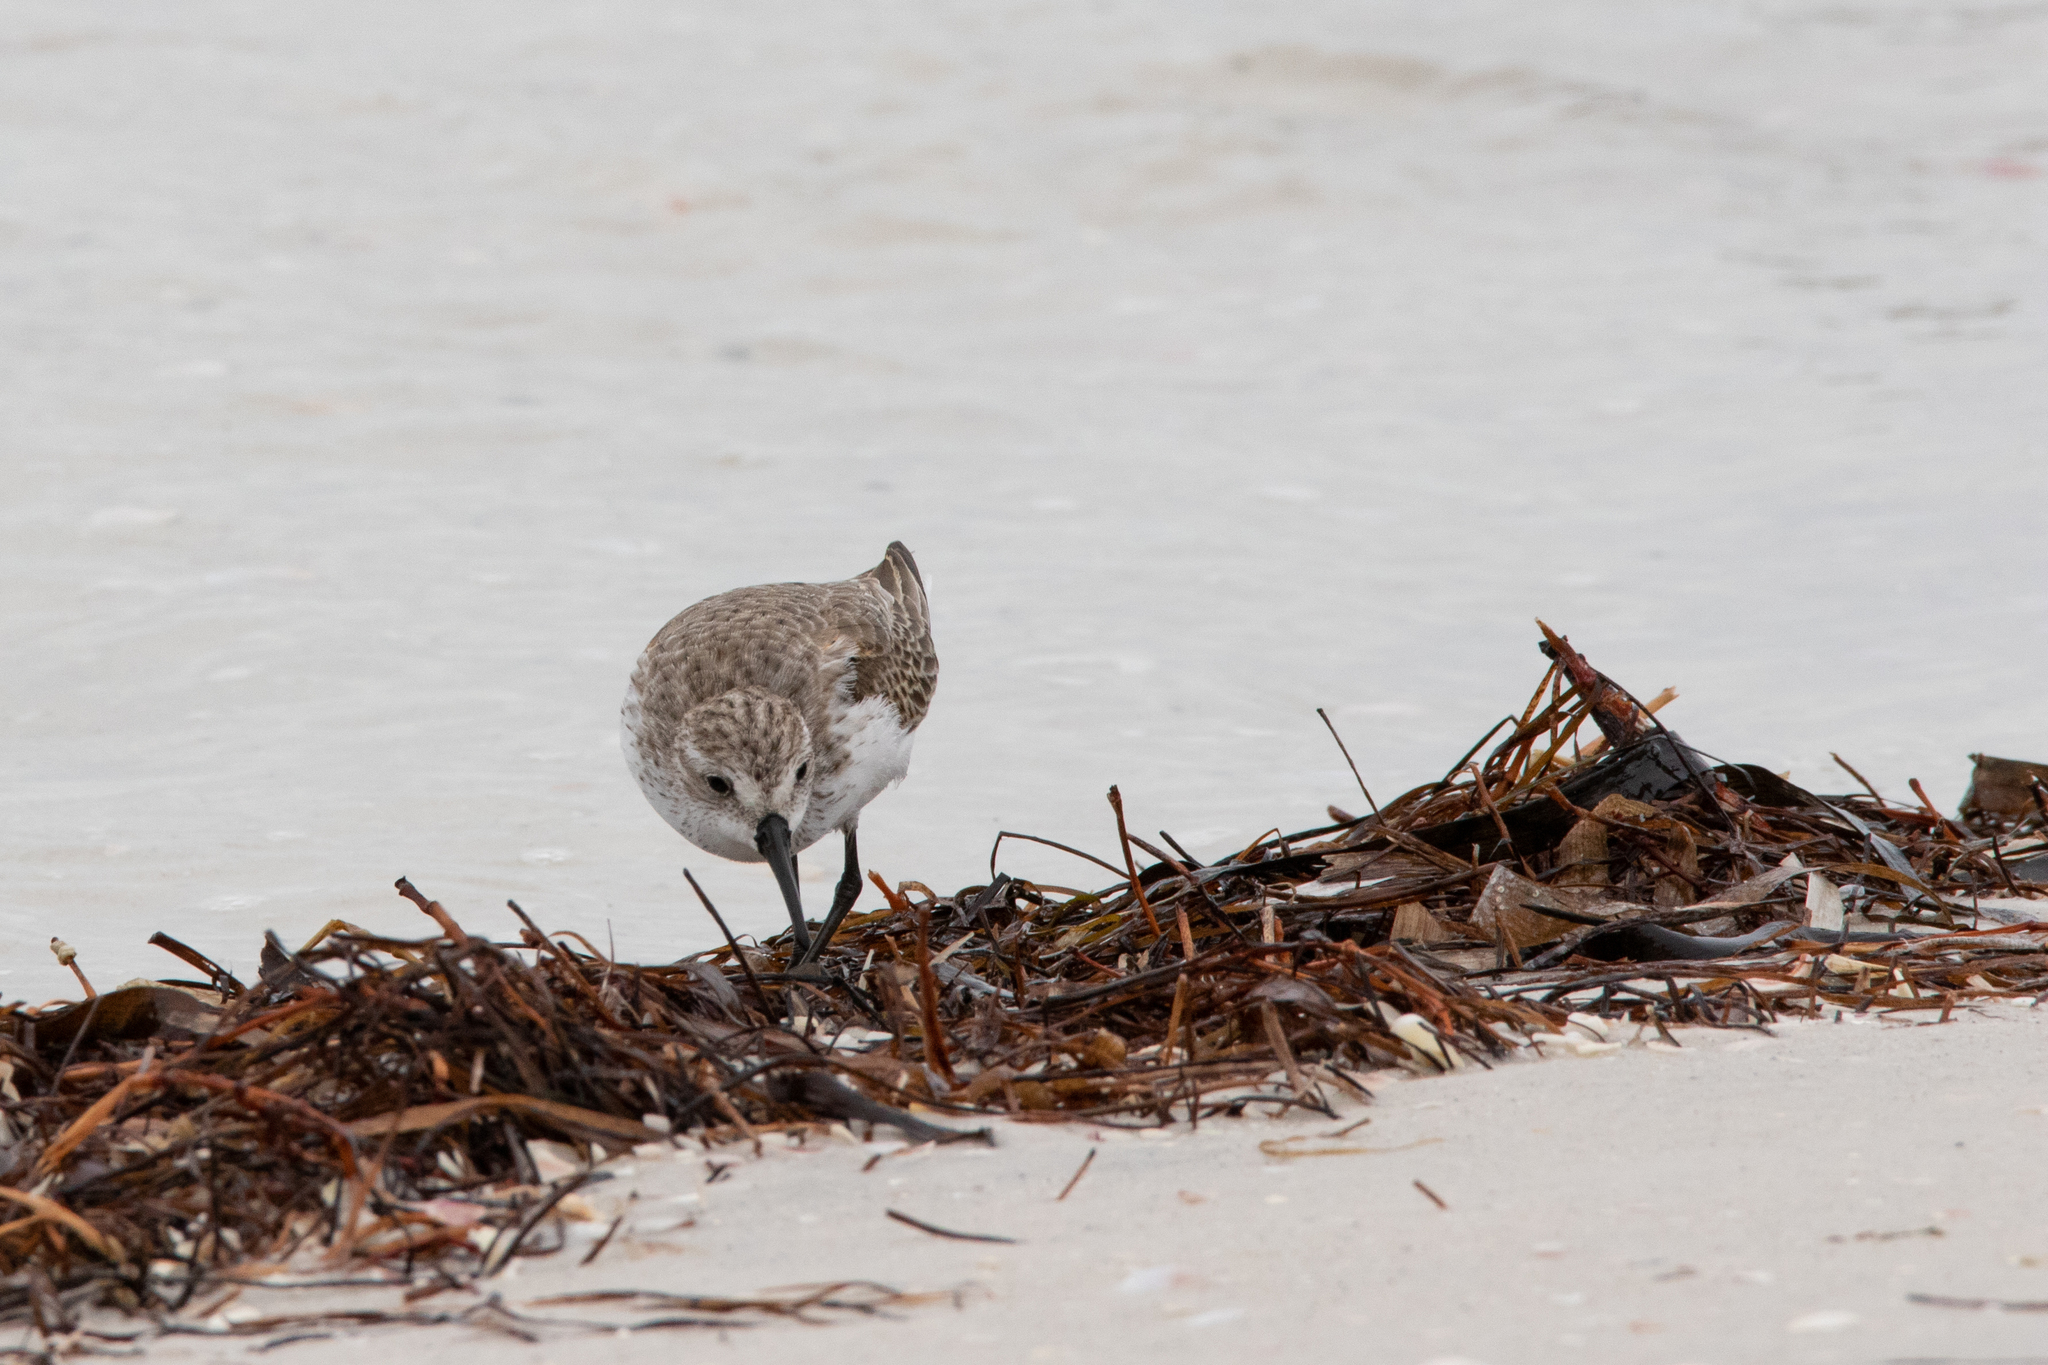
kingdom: Animalia
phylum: Chordata
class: Aves
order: Charadriiformes
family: Scolopacidae
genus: Calidris
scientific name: Calidris mauri
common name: Western sandpiper
